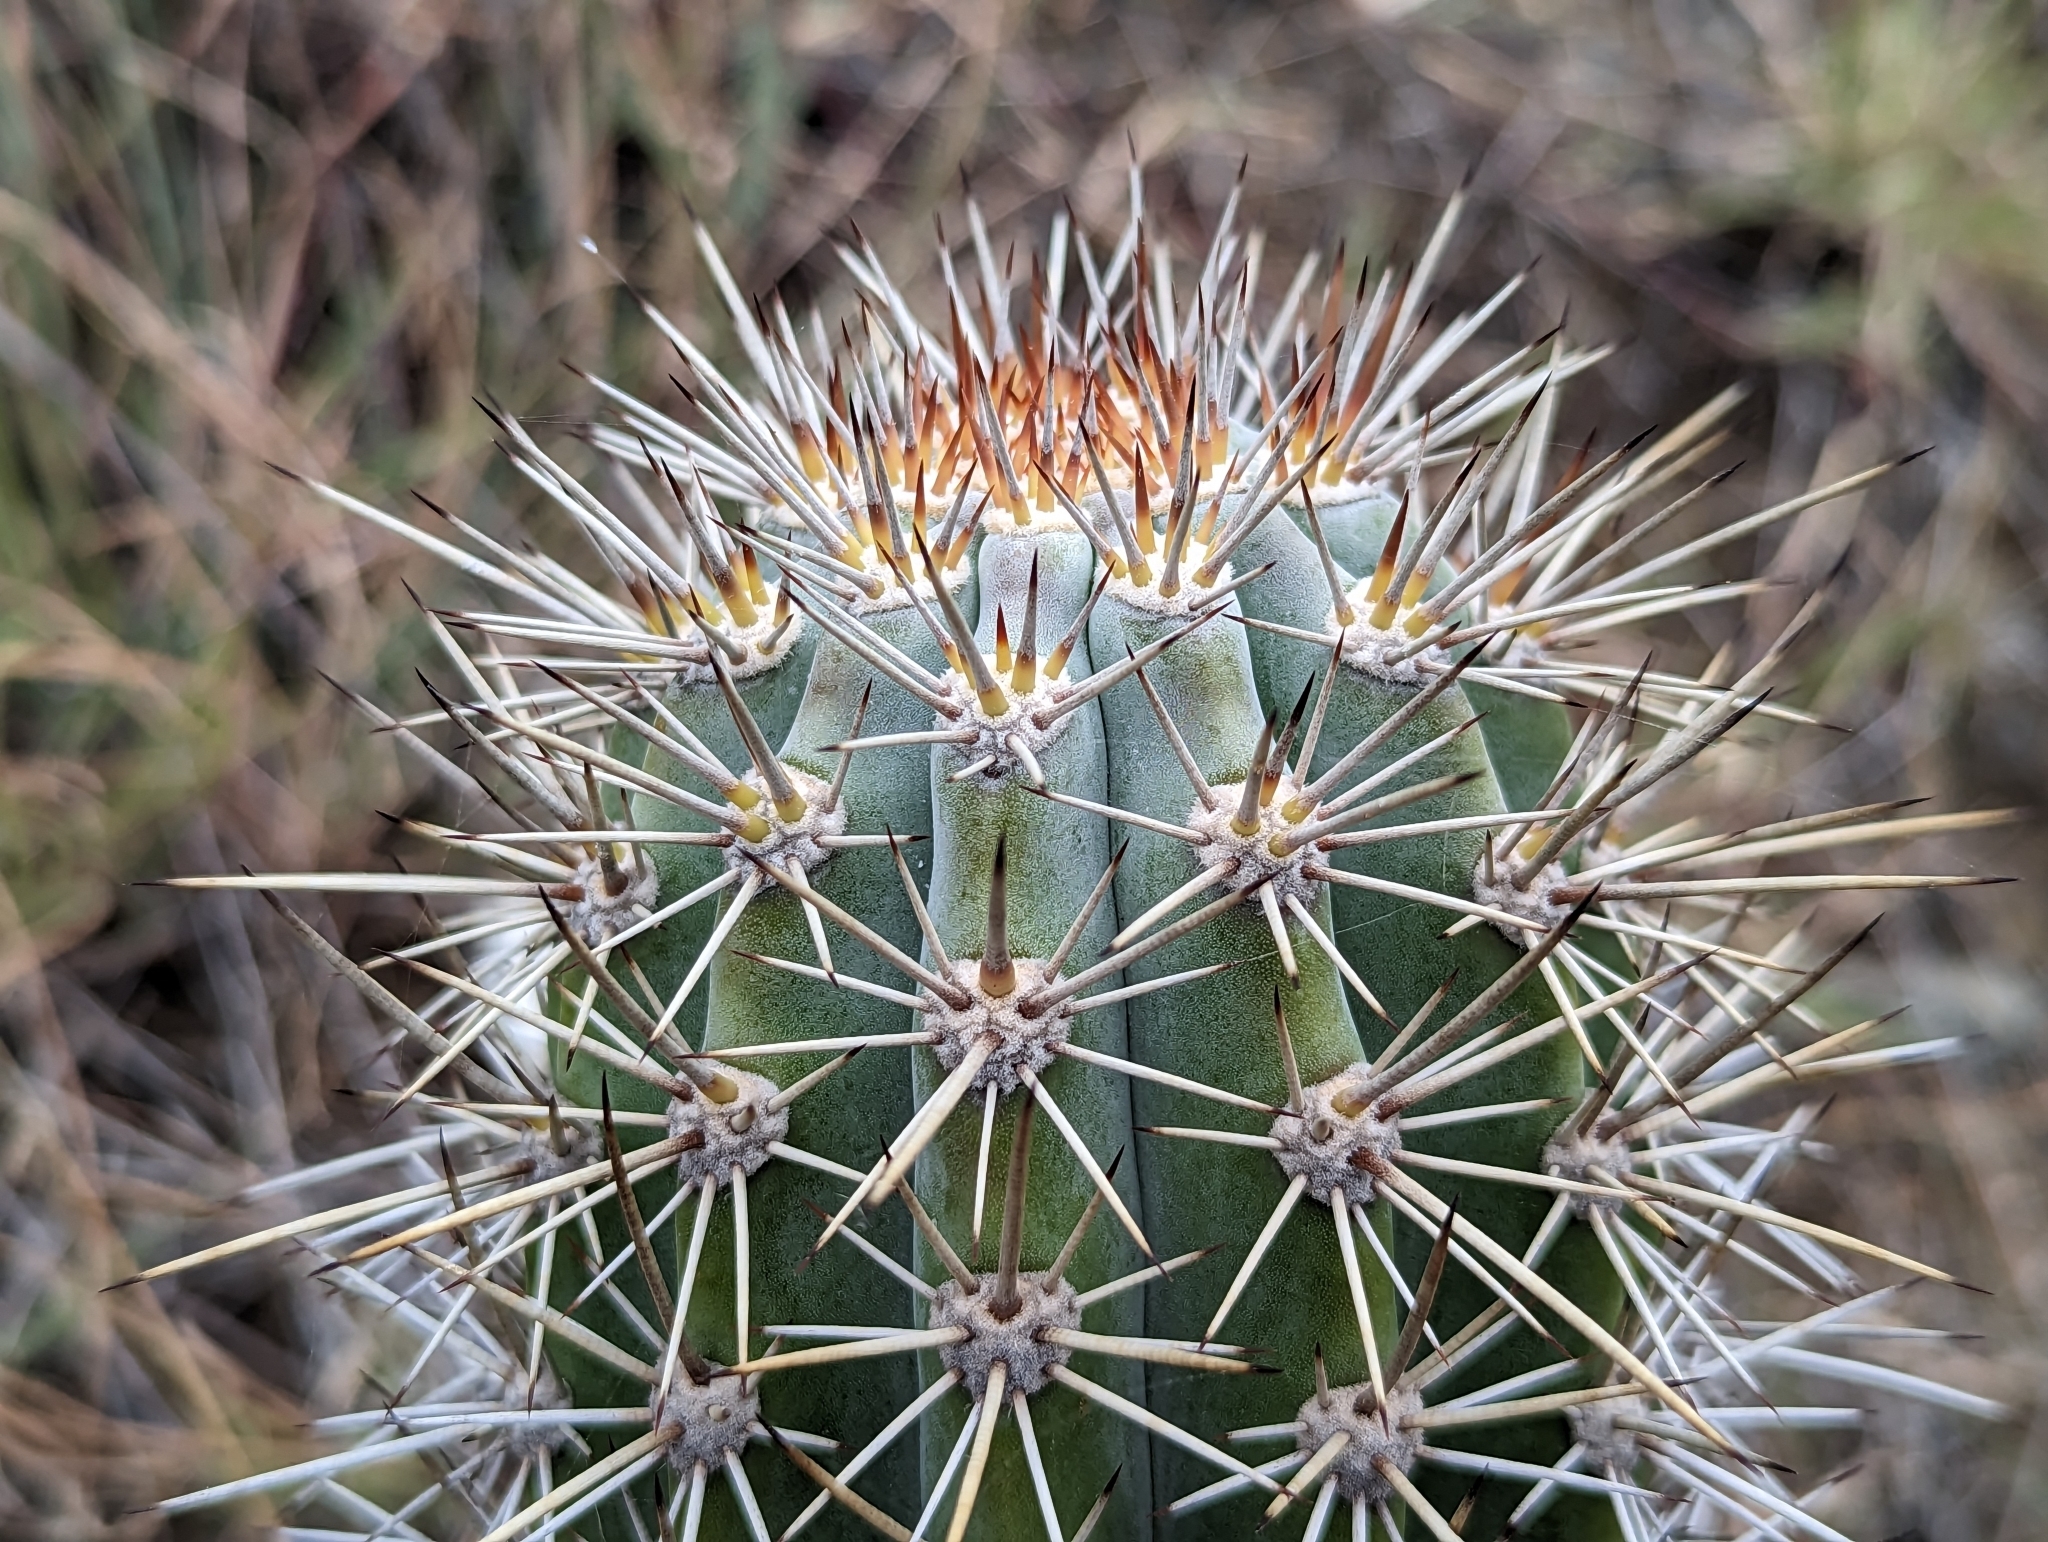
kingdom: Plantae
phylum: Tracheophyta
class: Magnoliopsida
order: Caryophyllales
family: Cactaceae
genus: Stenocereus
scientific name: Stenocereus heptagonus
